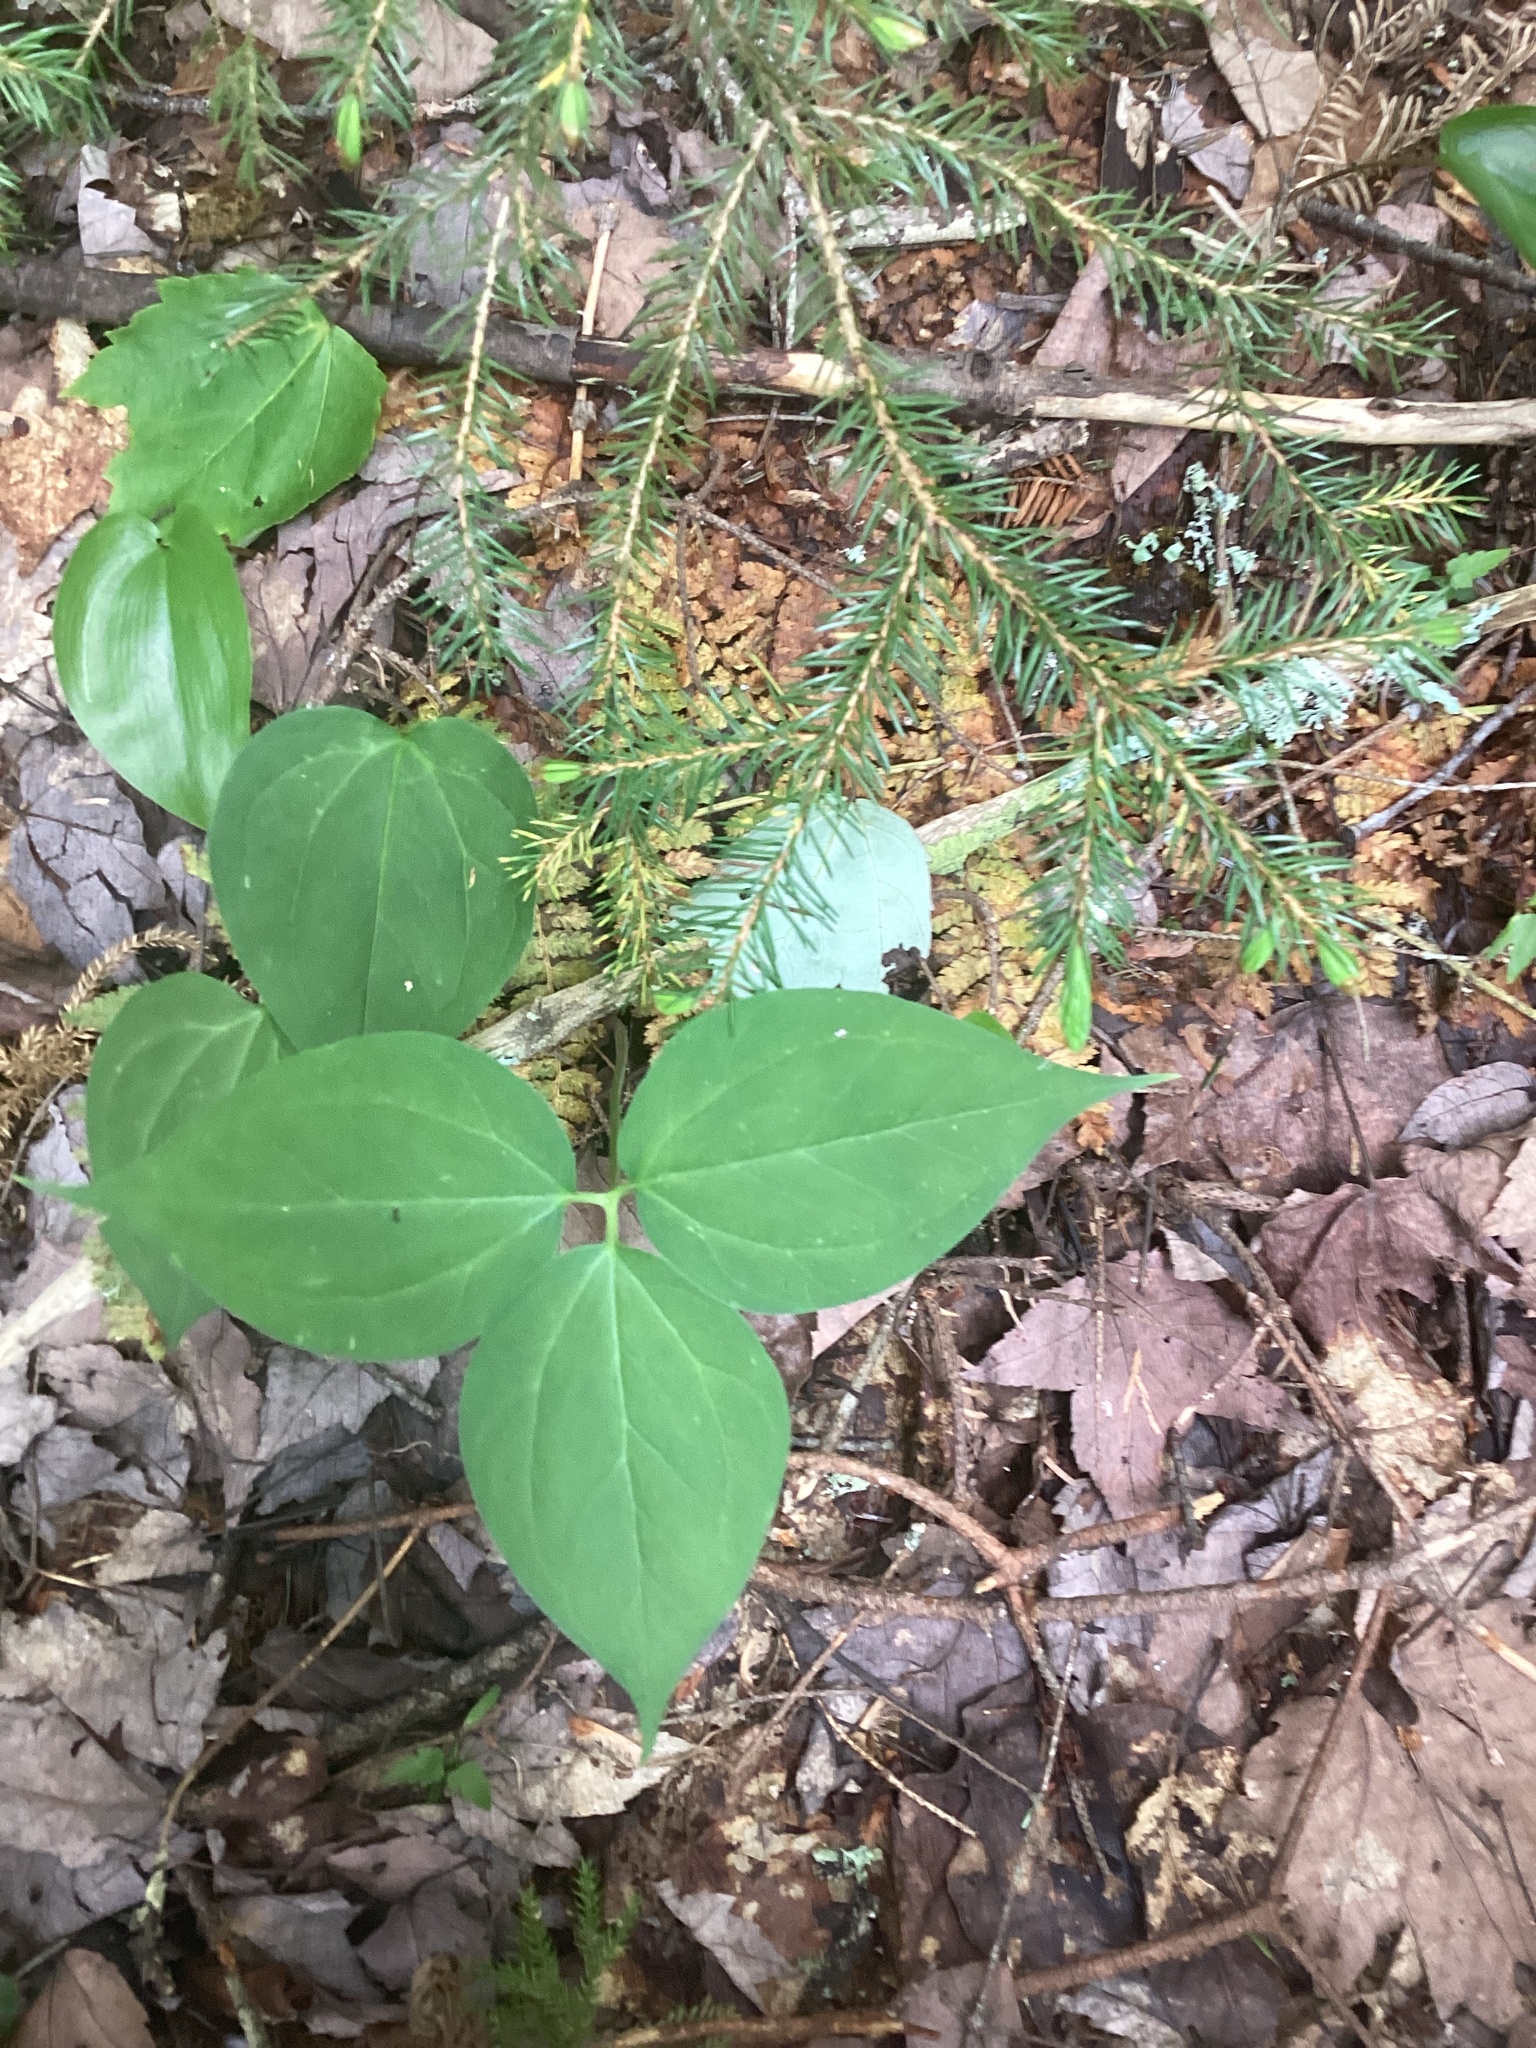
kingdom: Plantae
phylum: Tracheophyta
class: Liliopsida
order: Liliales
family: Melanthiaceae
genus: Trillium
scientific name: Trillium undulatum
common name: Paint trillium
